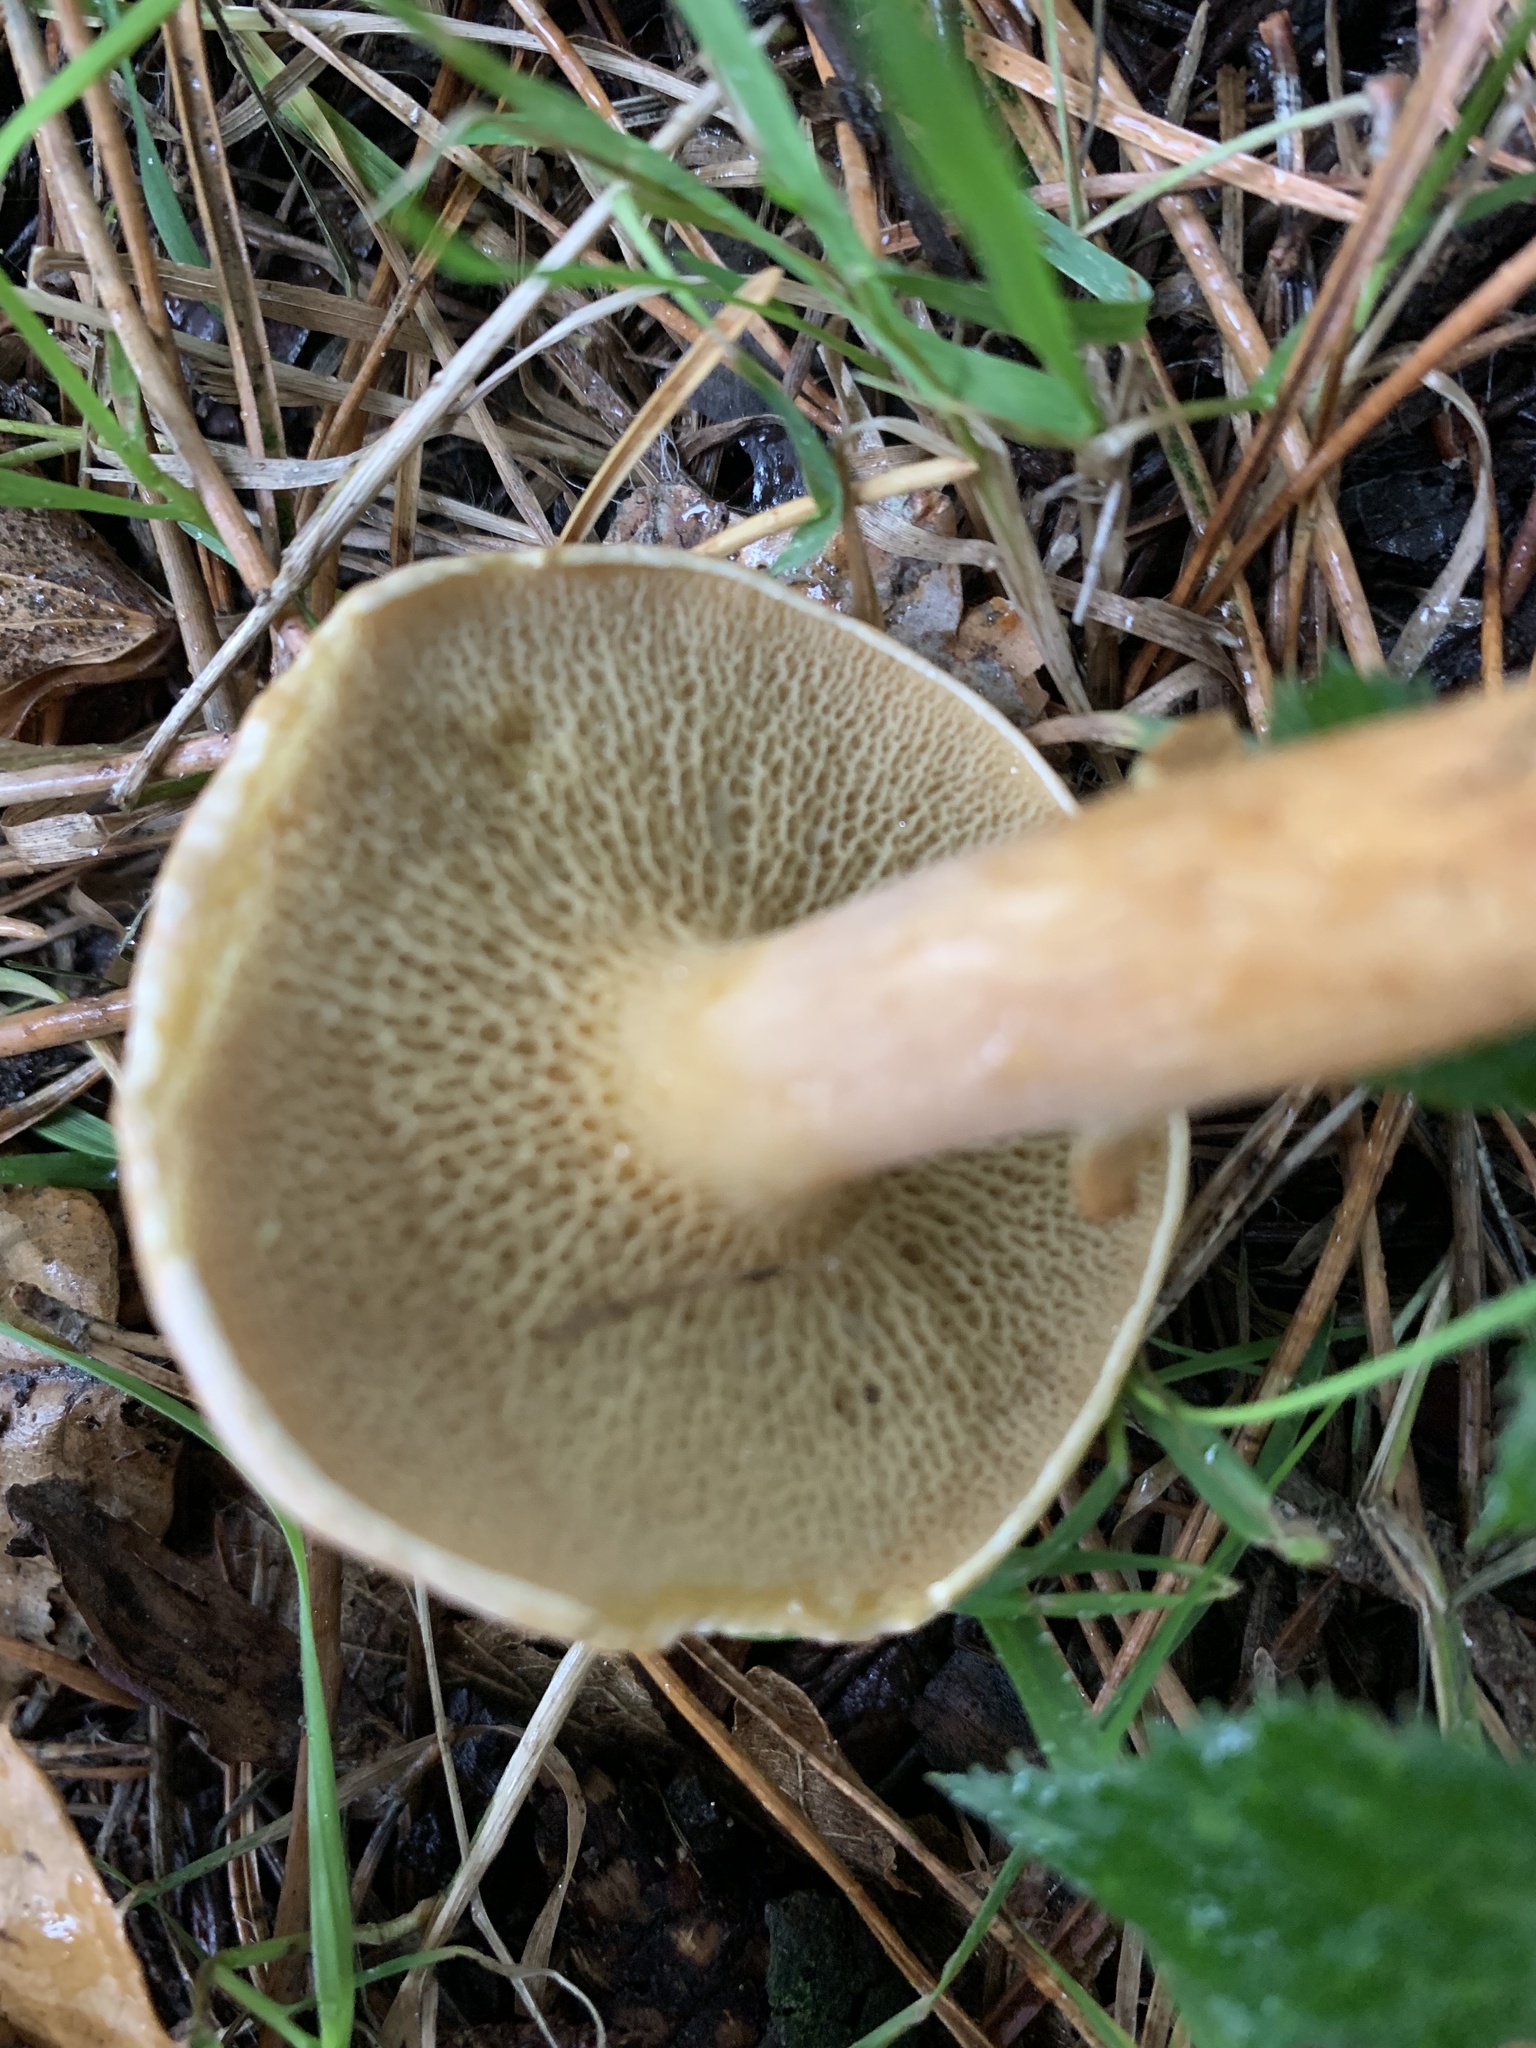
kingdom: Fungi
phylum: Basidiomycota
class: Agaricomycetes
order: Boletales
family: Suillaceae
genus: Suillus
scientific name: Suillus bovinus
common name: Bovine bolete
